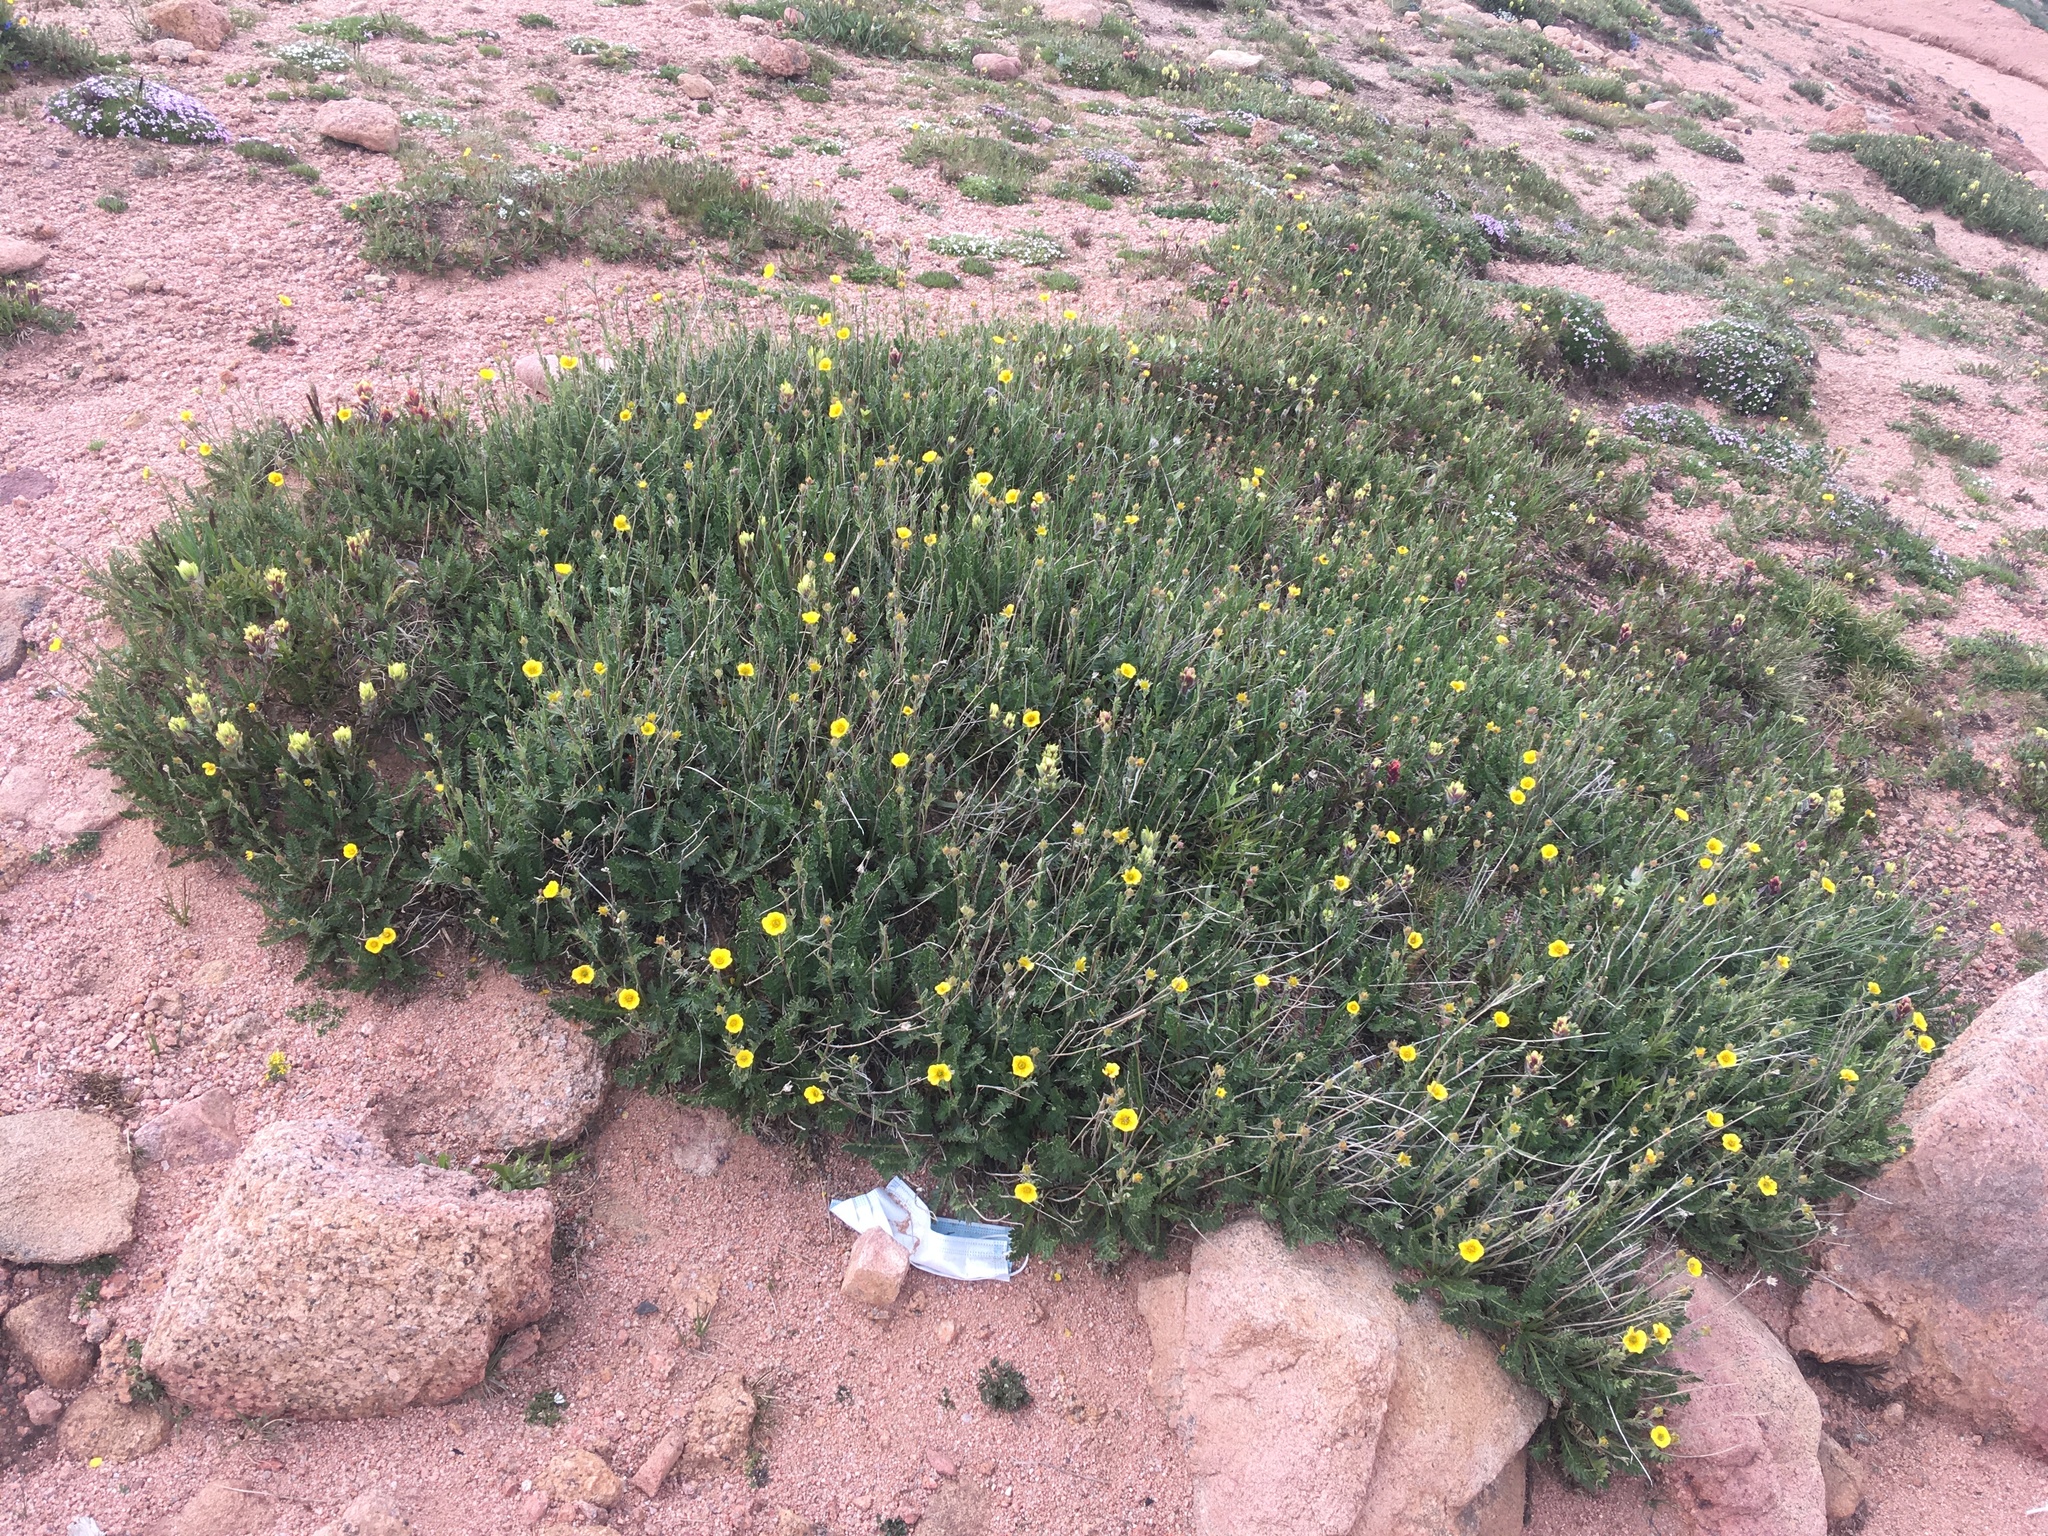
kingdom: Plantae
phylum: Tracheophyta
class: Magnoliopsida
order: Rosales
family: Rosaceae
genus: Geum
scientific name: Geum rossii
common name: Alpine avens
